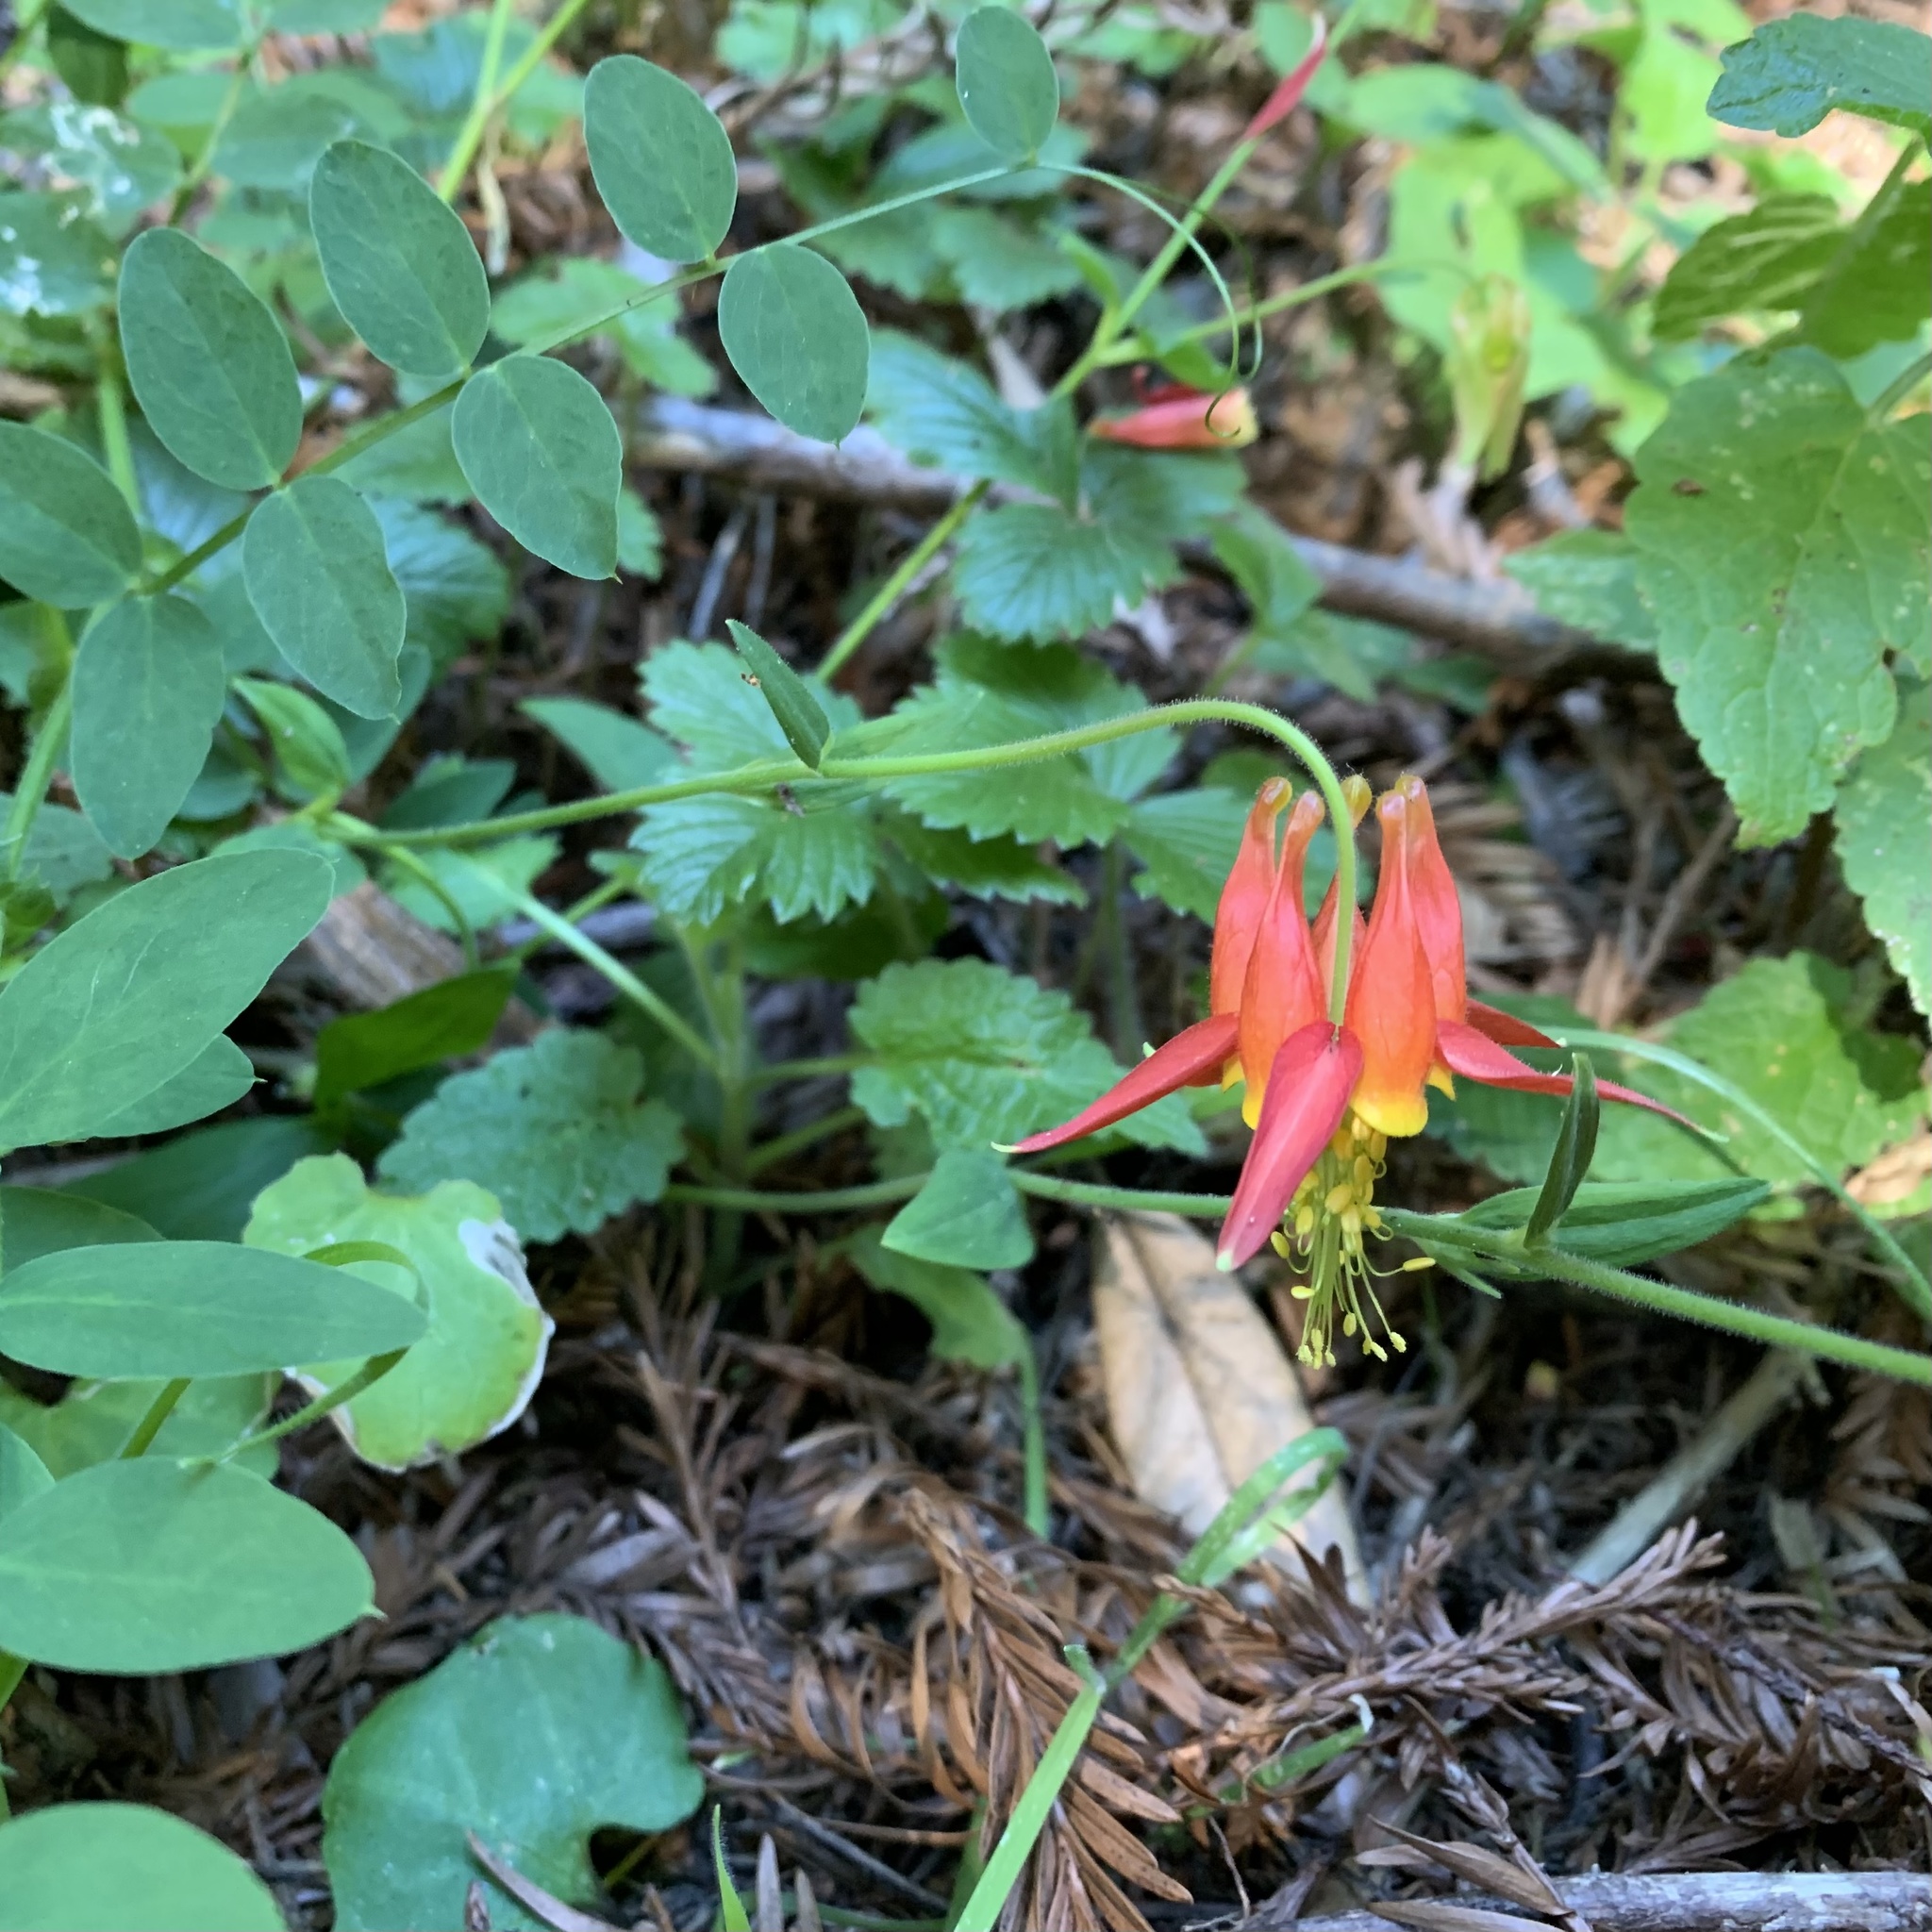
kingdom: Plantae
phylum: Tracheophyta
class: Magnoliopsida
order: Ranunculales
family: Ranunculaceae
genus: Aquilegia
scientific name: Aquilegia formosa
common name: Sitka columbine
